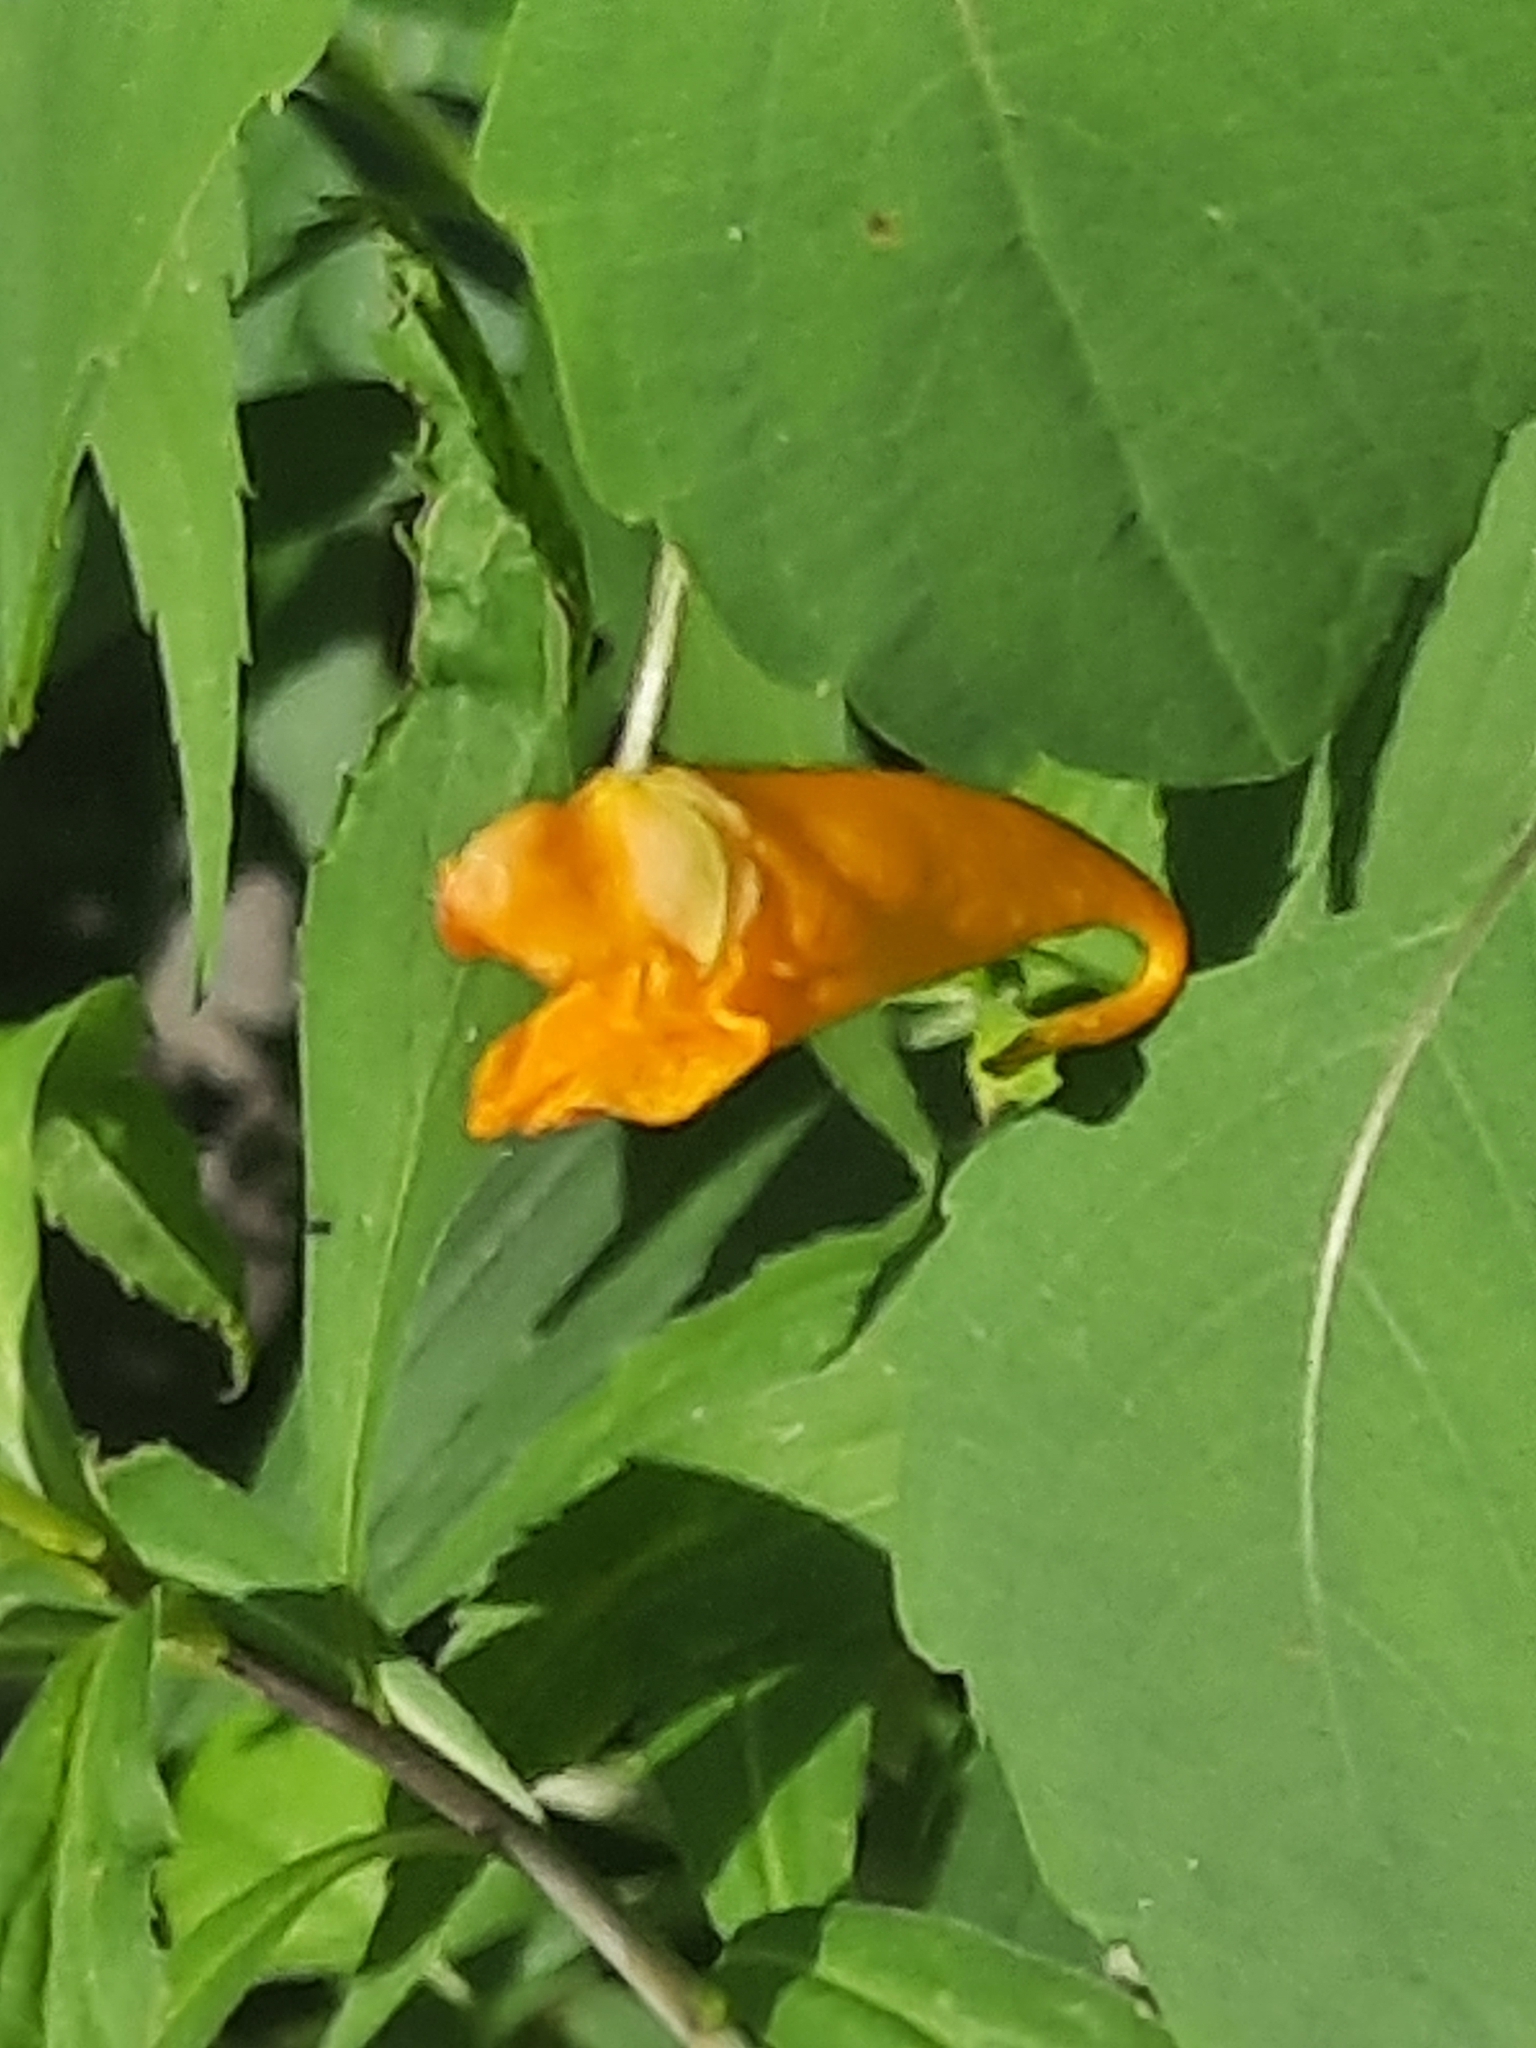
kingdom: Plantae
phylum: Tracheophyta
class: Magnoliopsida
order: Ericales
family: Balsaminaceae
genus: Impatiens
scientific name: Impatiens capensis
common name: Orange balsam
